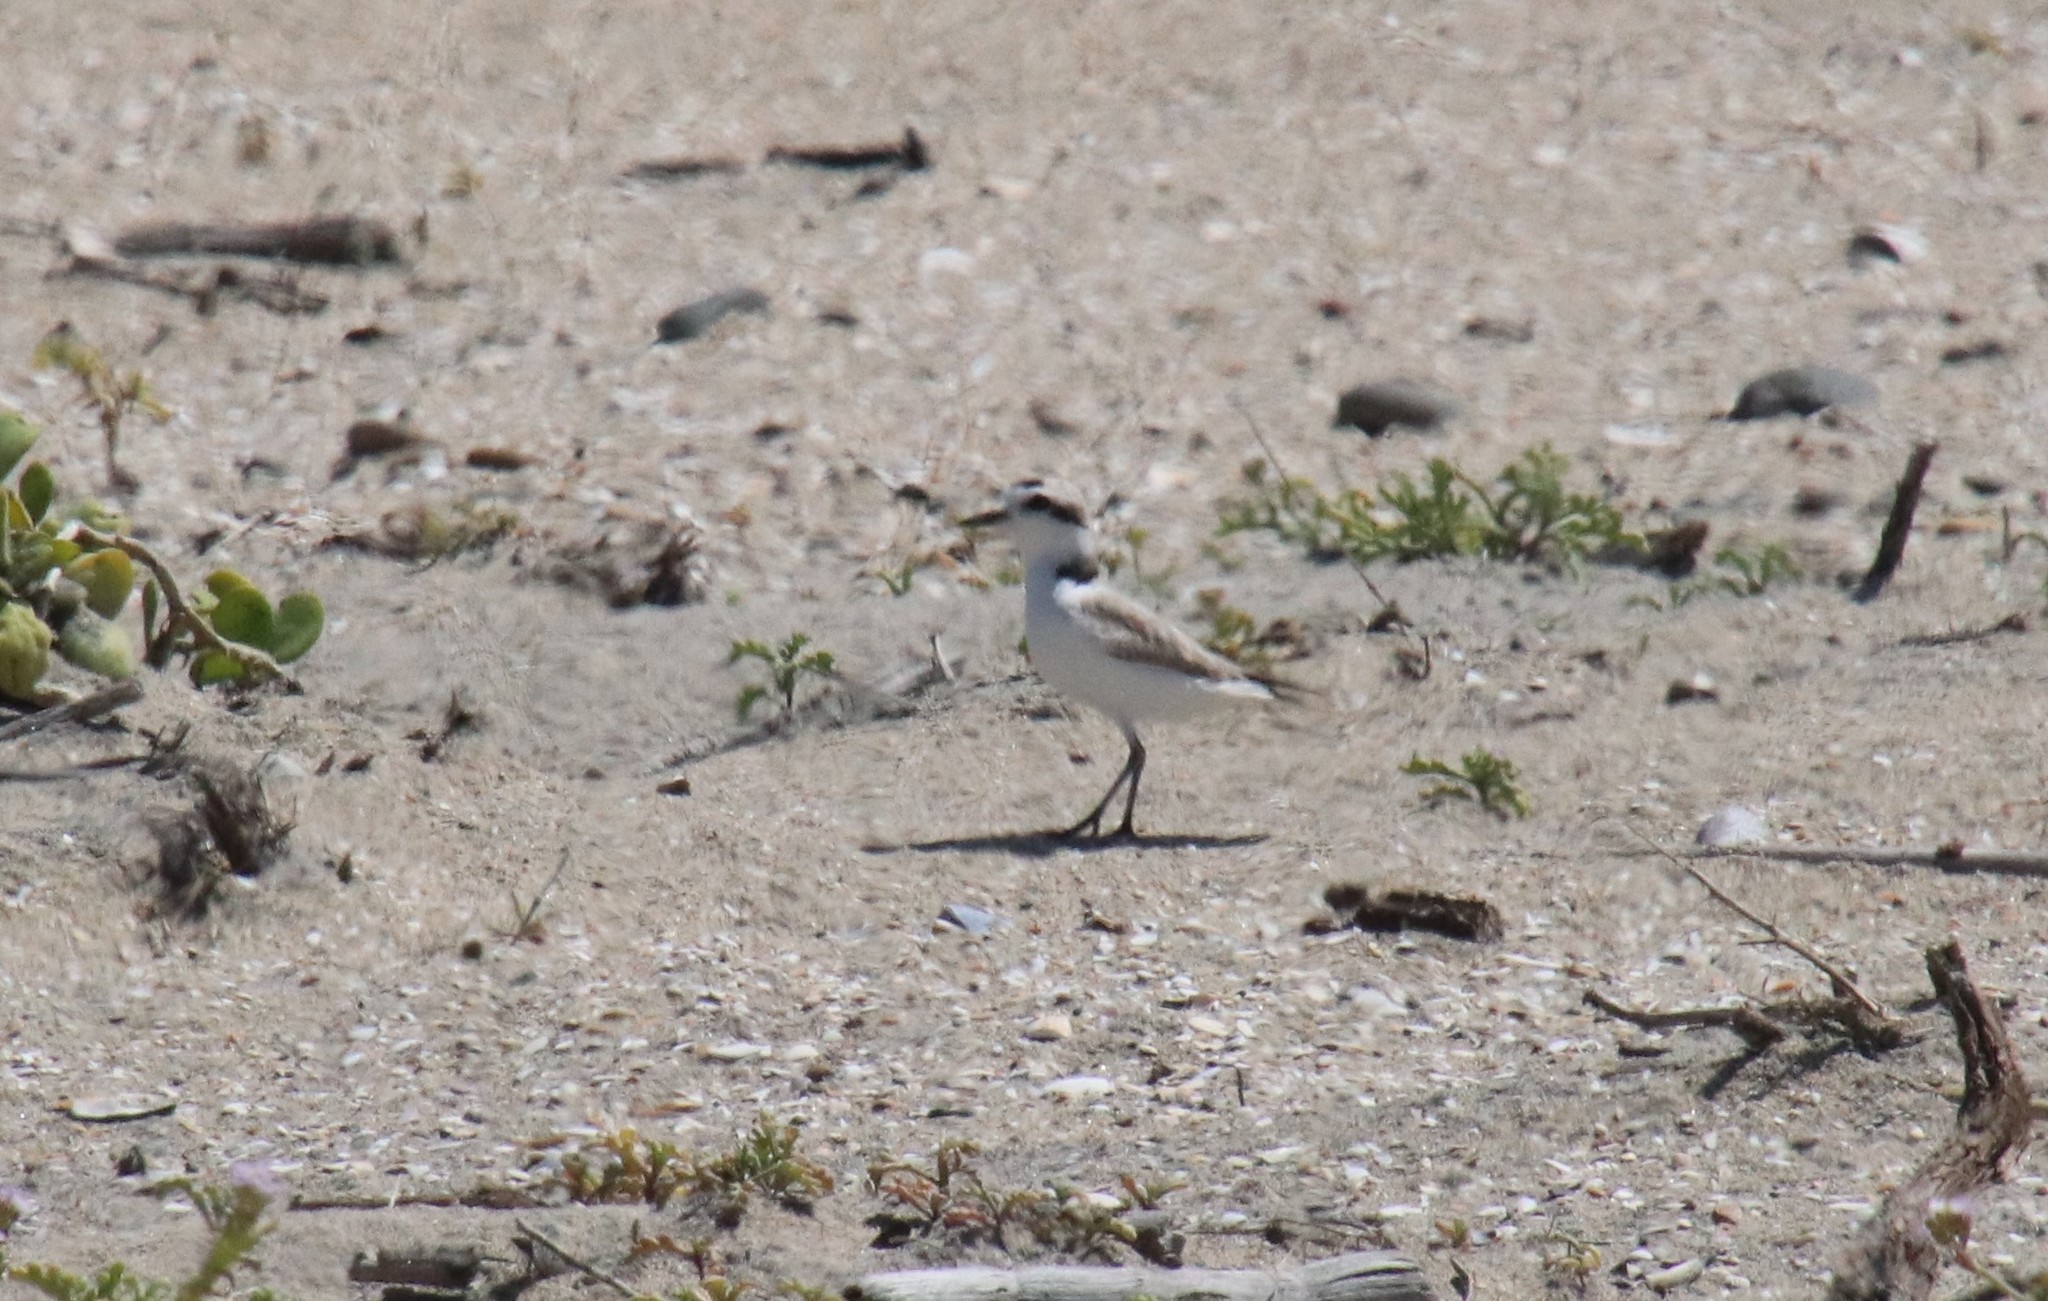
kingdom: Animalia
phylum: Chordata
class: Aves
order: Charadriiformes
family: Charadriidae
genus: Anarhynchus
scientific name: Anarhynchus
